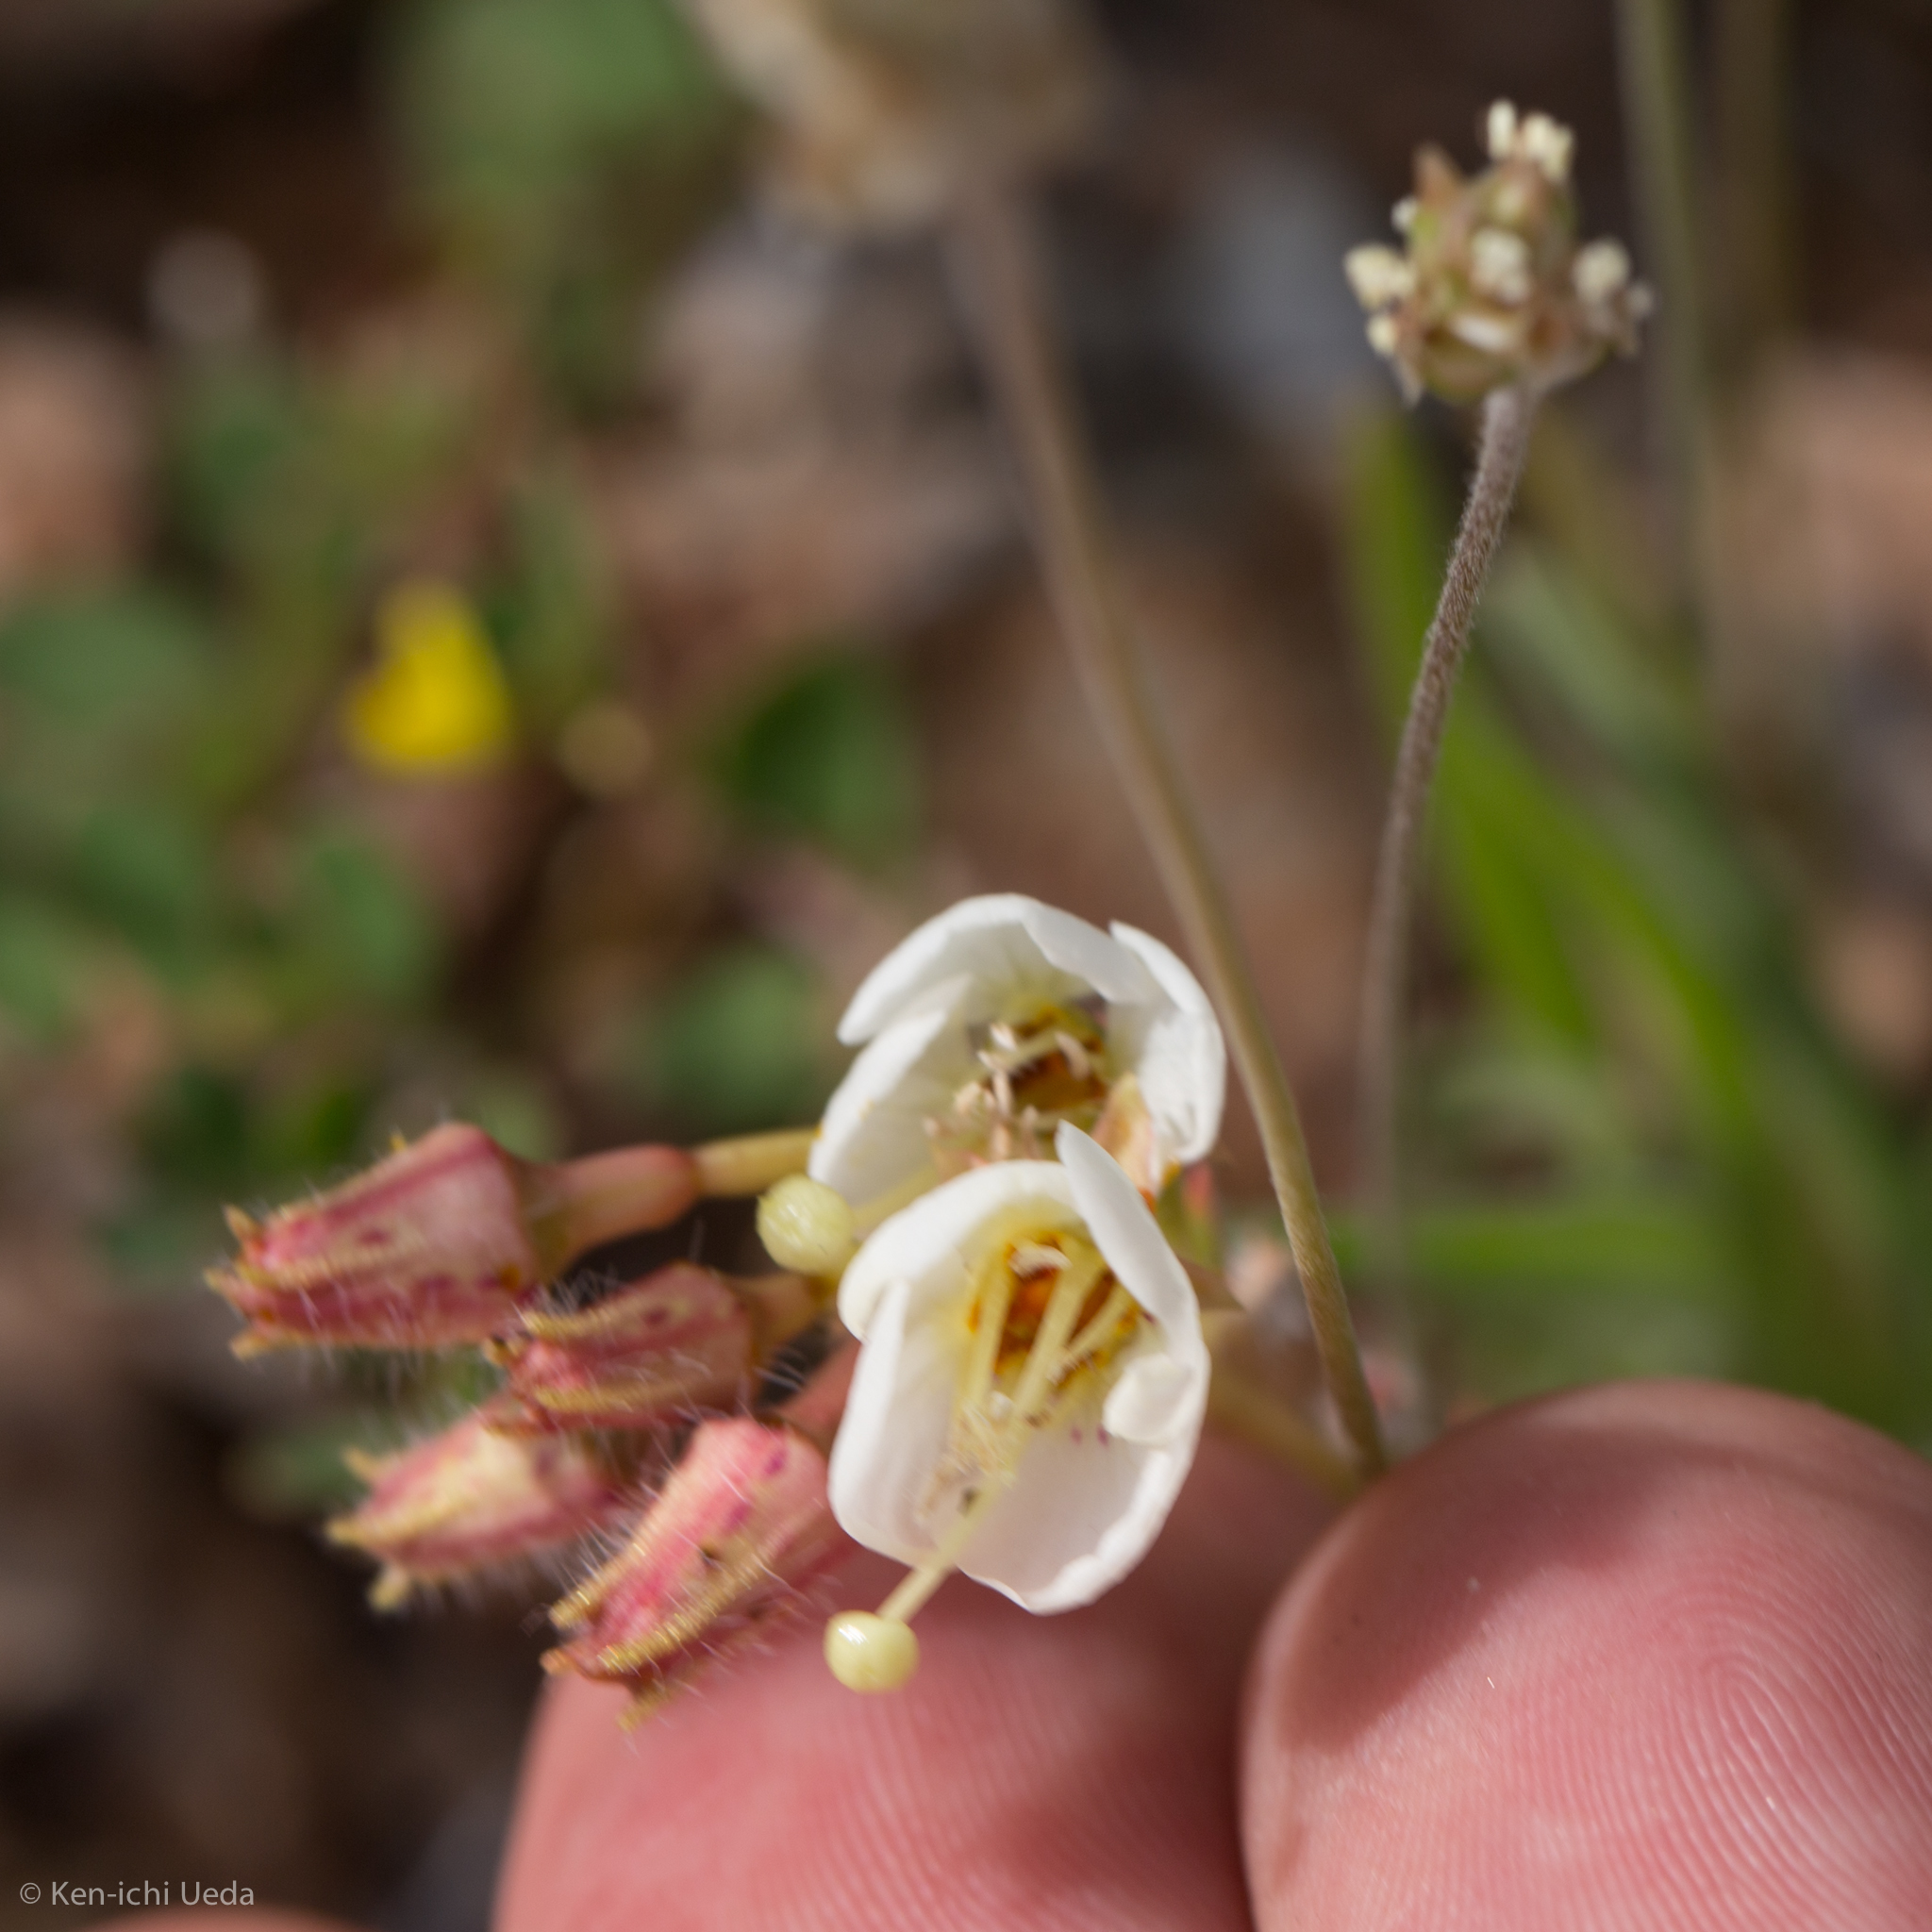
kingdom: Plantae
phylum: Tracheophyta
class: Magnoliopsida
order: Myrtales
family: Onagraceae
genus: Chylismia
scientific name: Chylismia claviformis
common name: Browneyes
